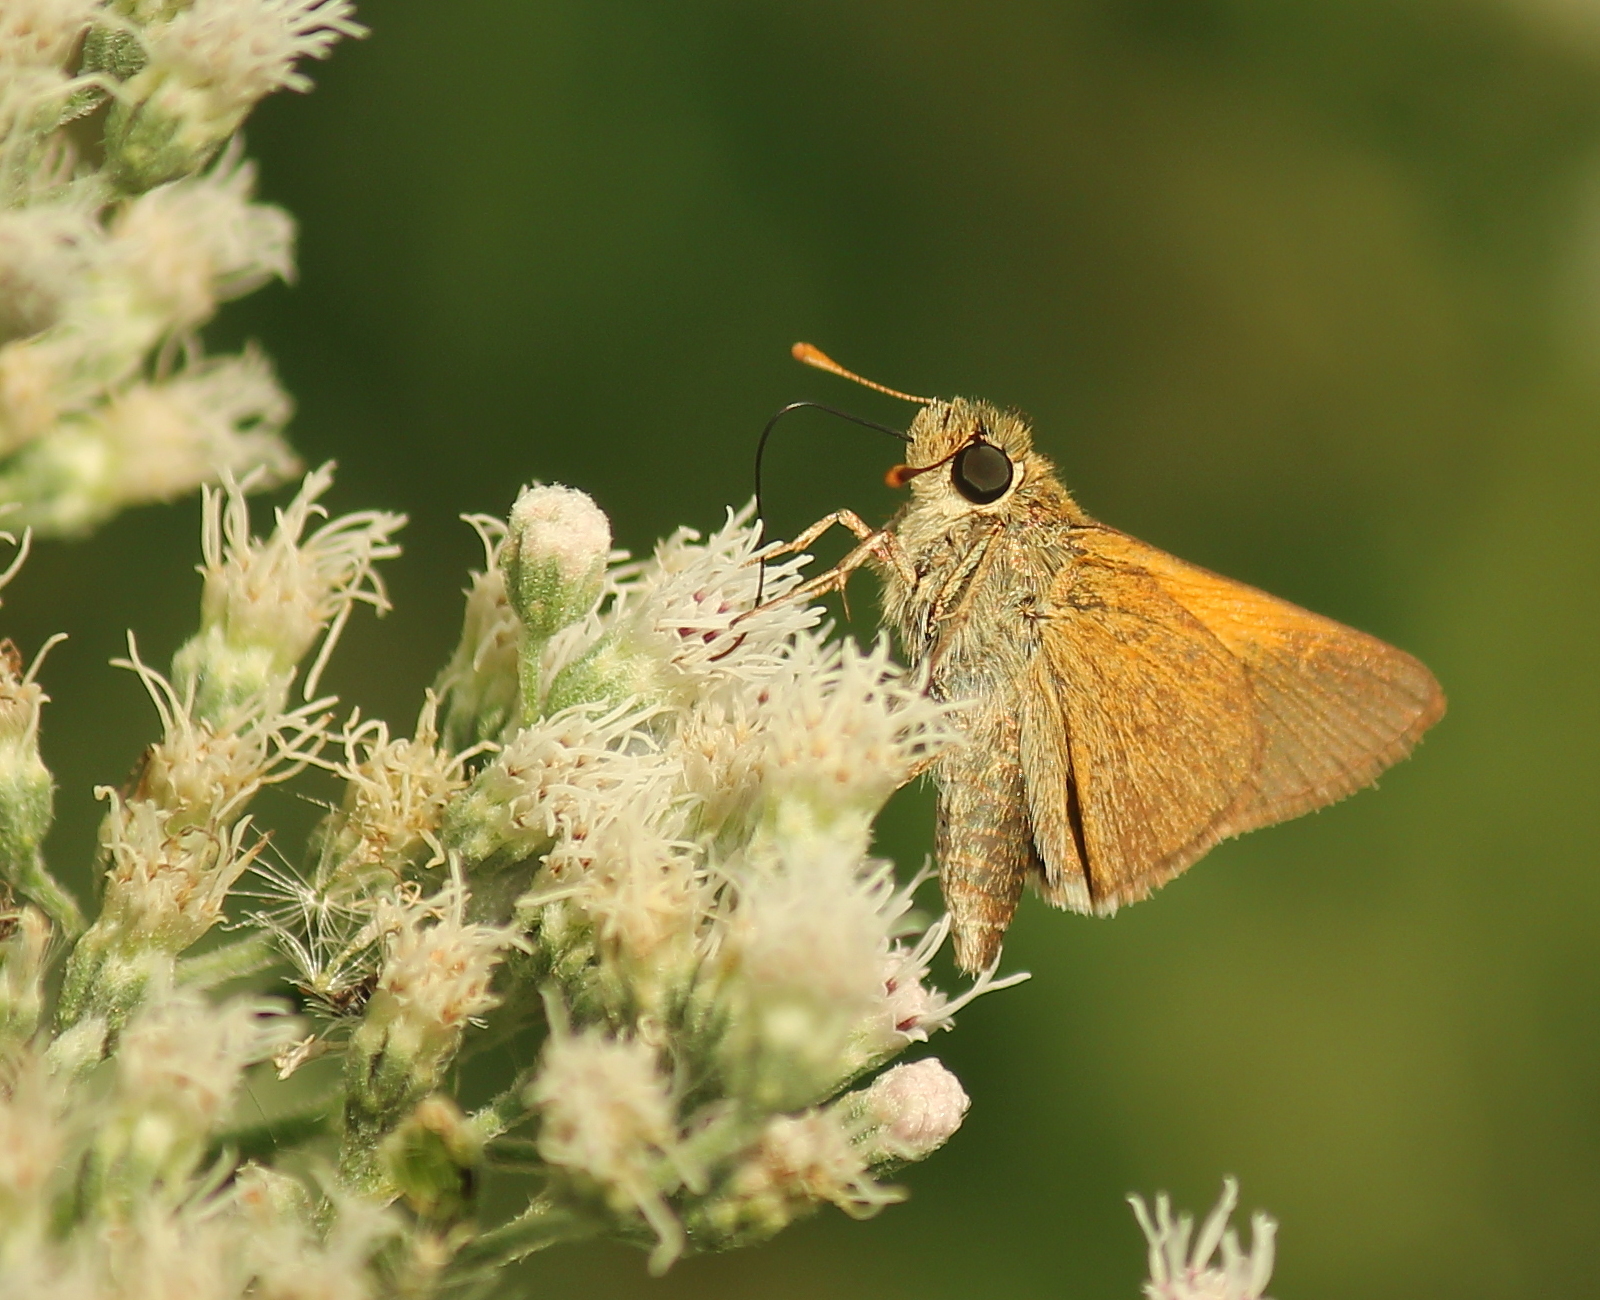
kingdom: Animalia
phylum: Arthropoda
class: Insecta
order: Lepidoptera
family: Hesperiidae
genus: Polites
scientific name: Polites themistocles
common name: Tawny-edged skipper
